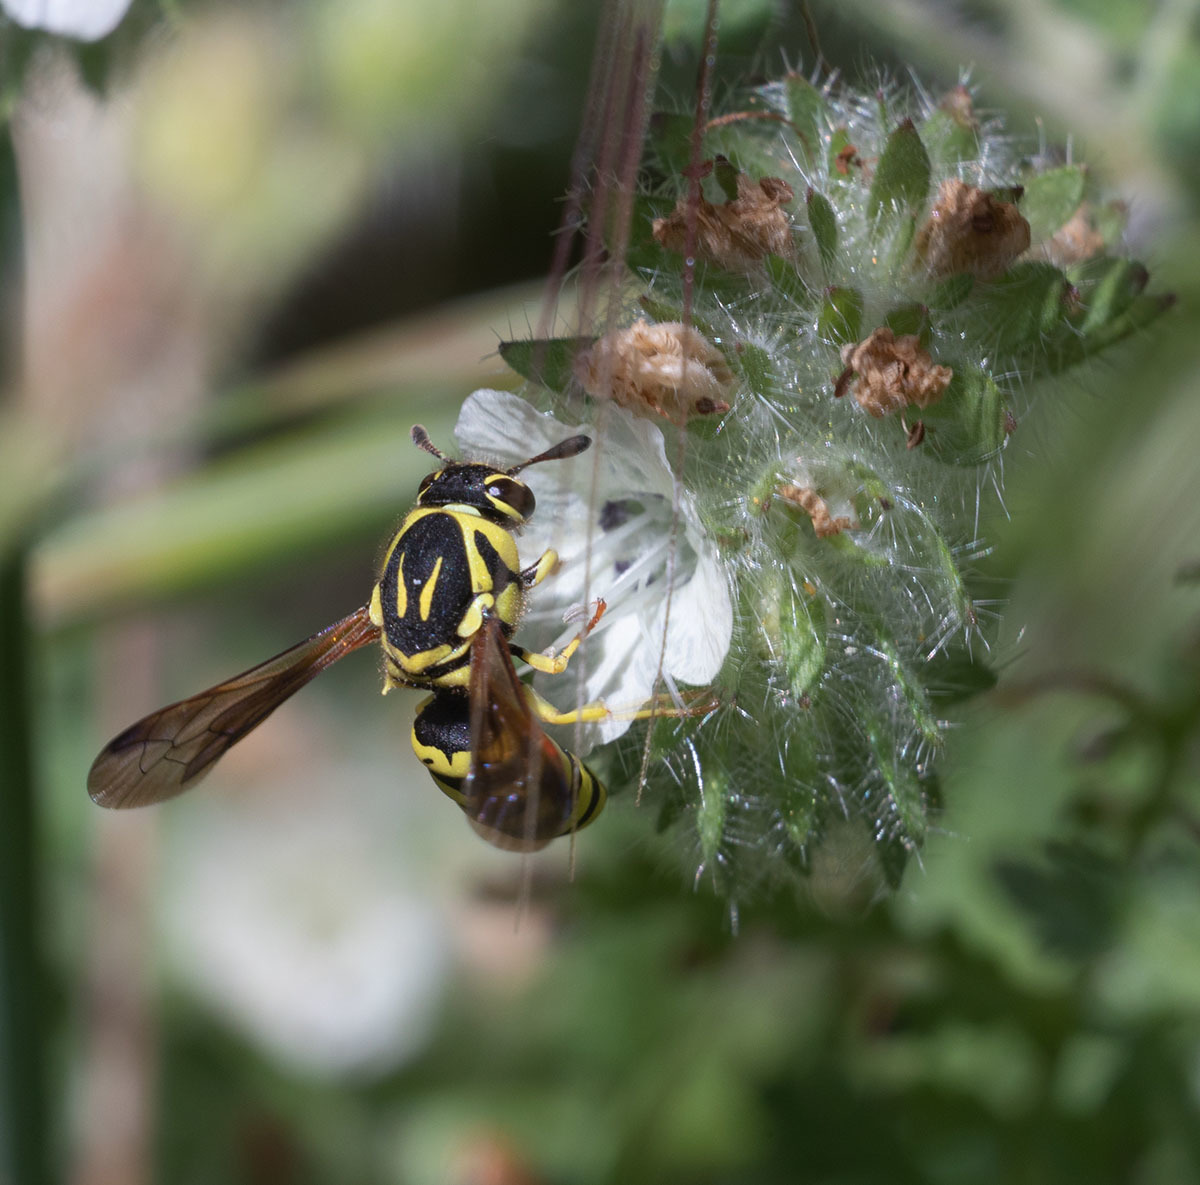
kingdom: Animalia
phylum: Arthropoda
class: Insecta
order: Hymenoptera
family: Masaridae
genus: Pseudomasaris
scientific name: Pseudomasaris edwardsi
